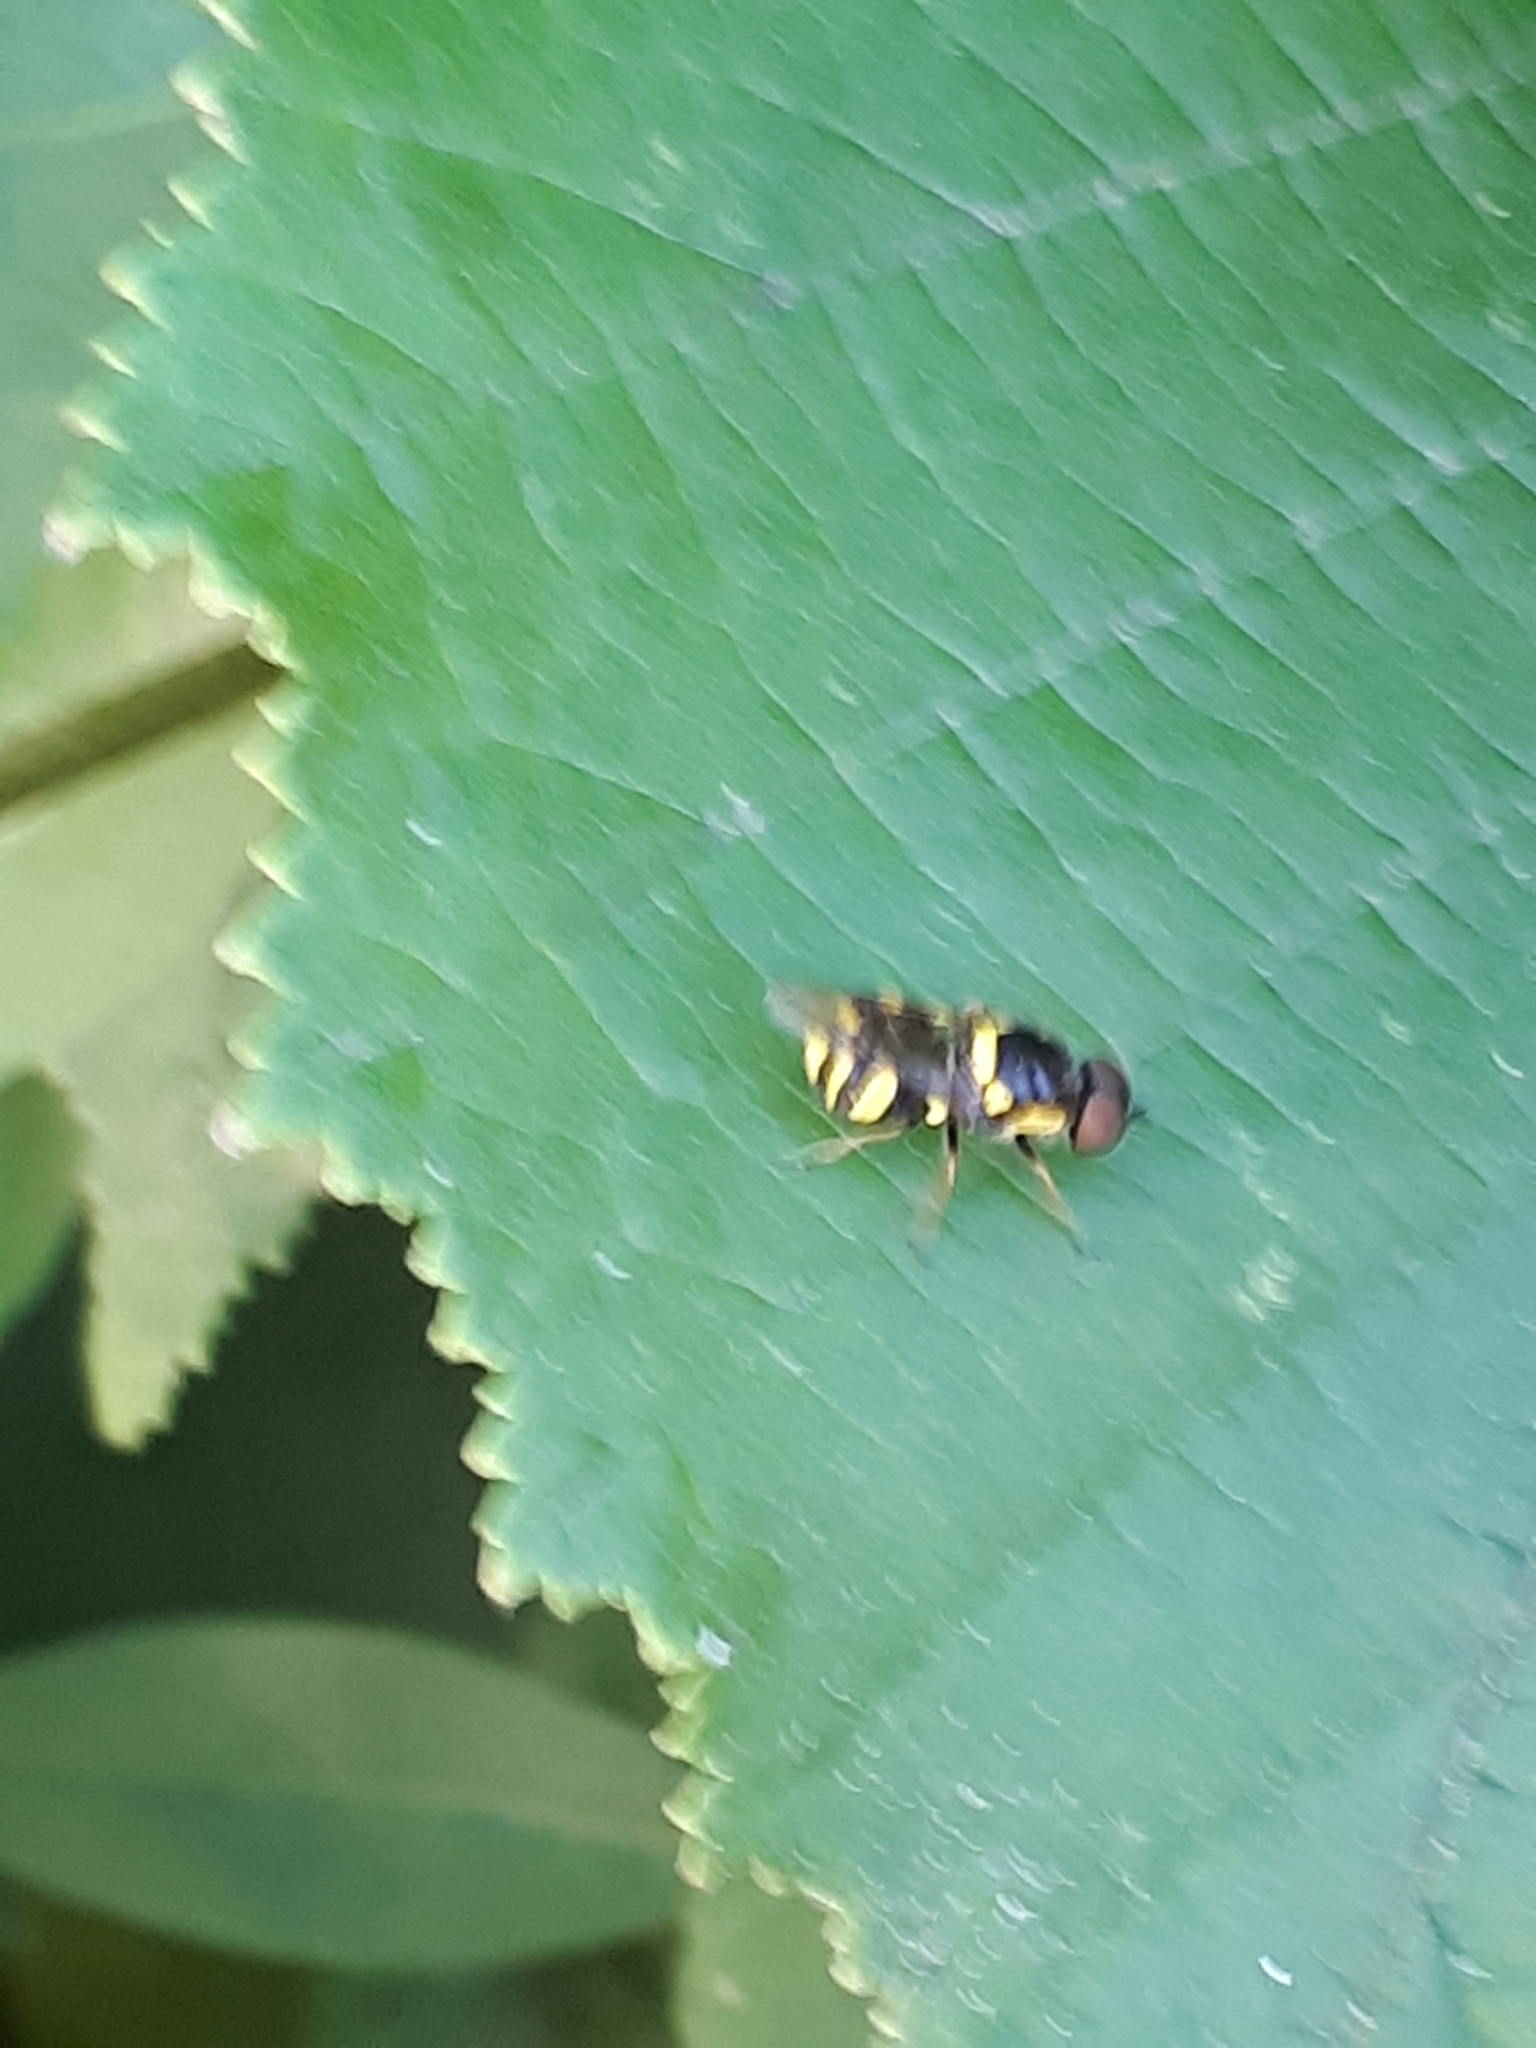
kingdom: Animalia
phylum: Arthropoda
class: Insecta
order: Diptera
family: Stratiomyidae
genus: Oxycera
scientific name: Oxycera rara
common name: Four-barred major
